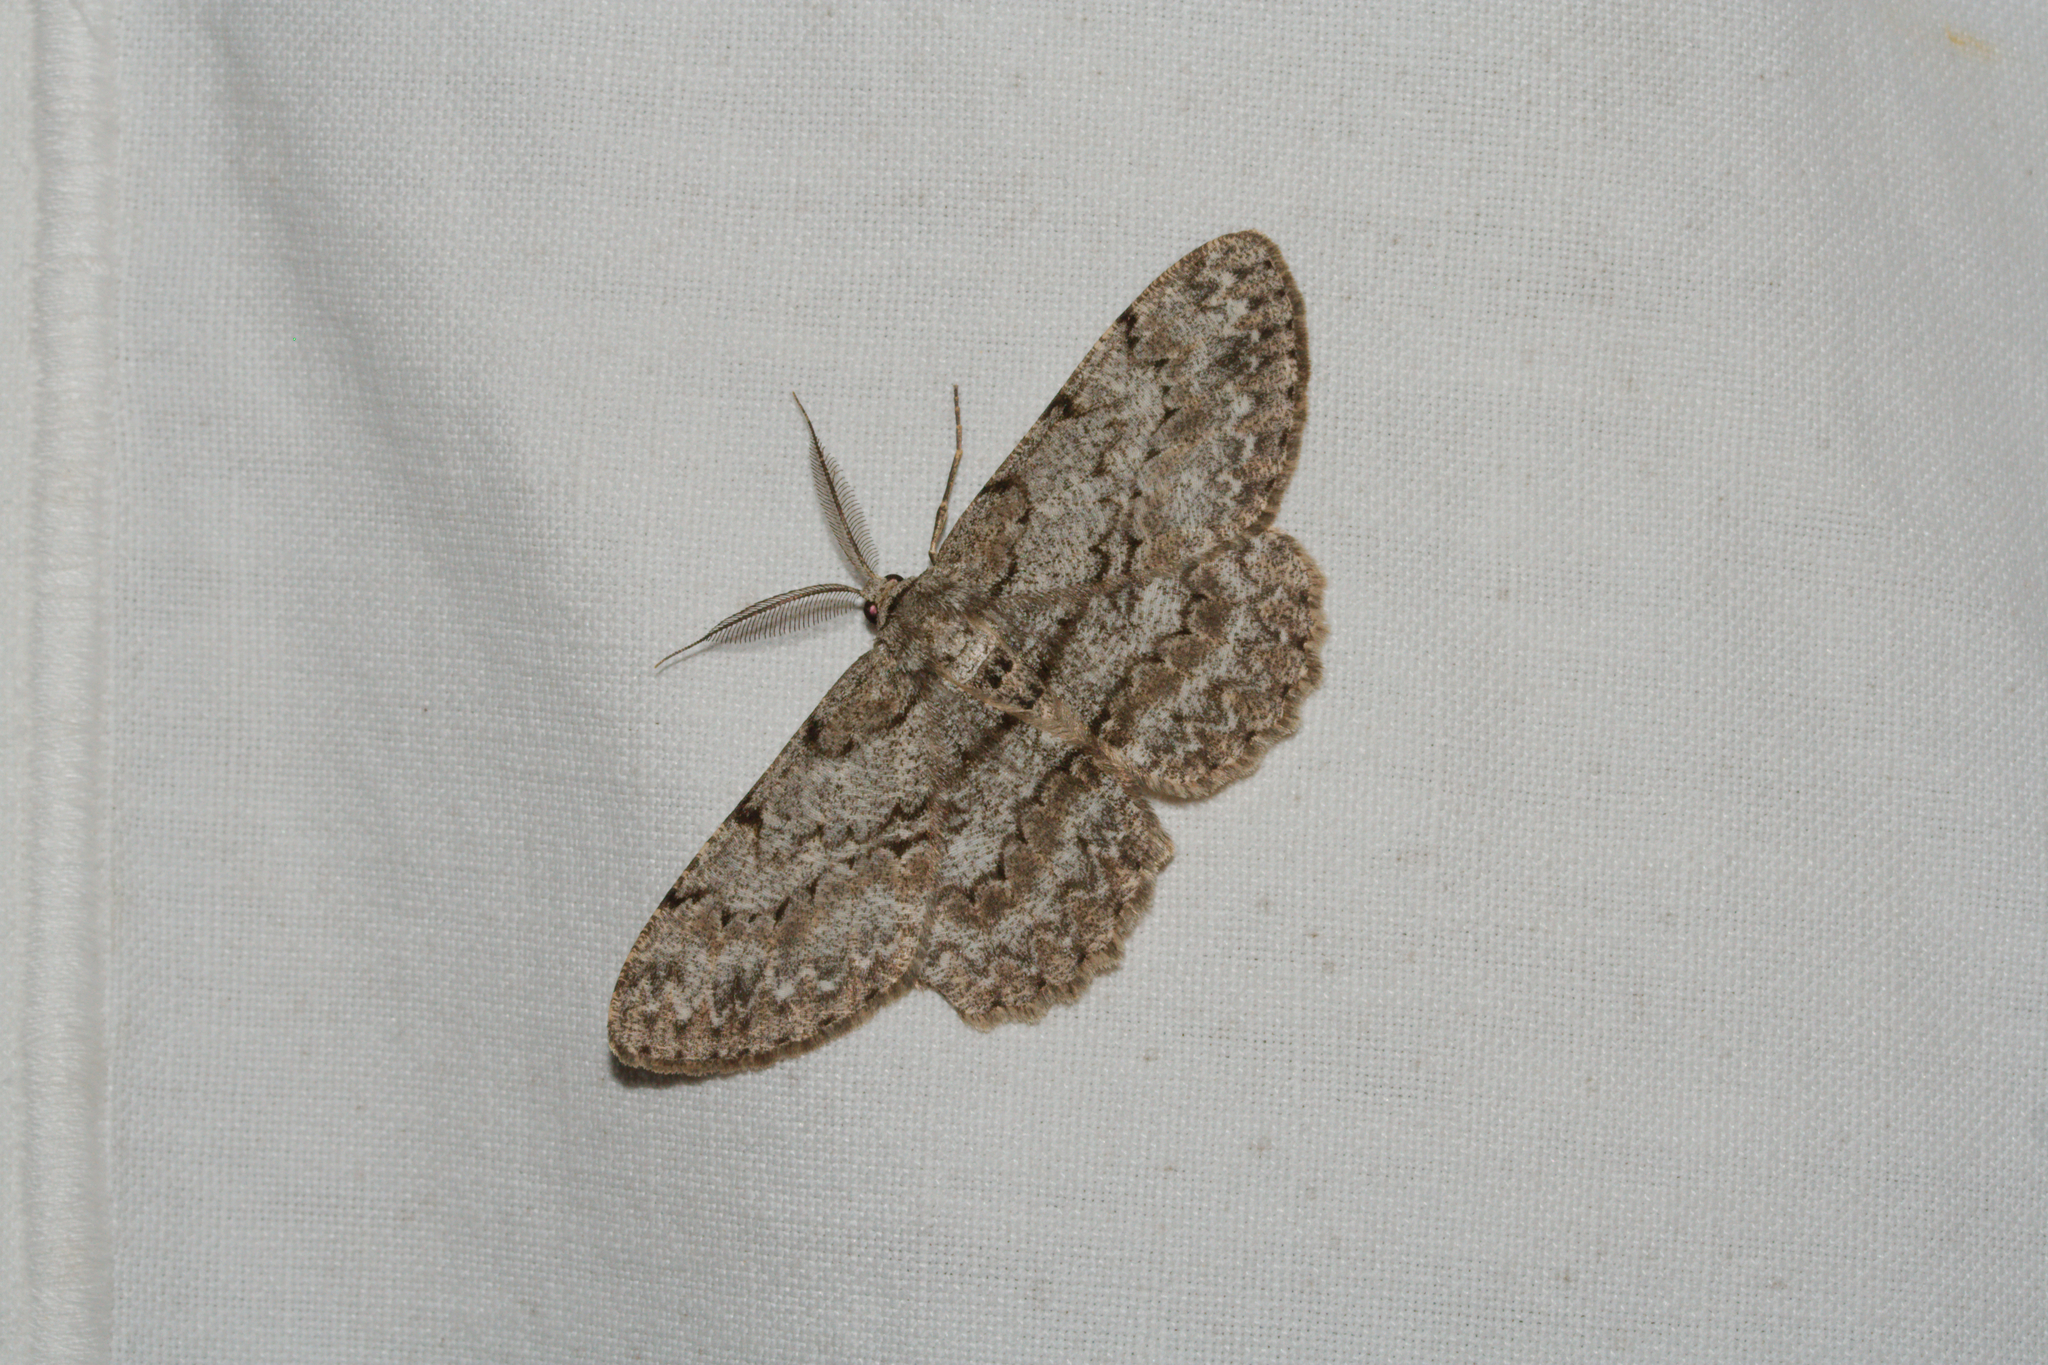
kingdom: Animalia
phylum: Arthropoda
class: Insecta
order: Lepidoptera
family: Geometridae
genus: Hypomecis
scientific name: Hypomecis punctinalis
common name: Pale oak beauty
